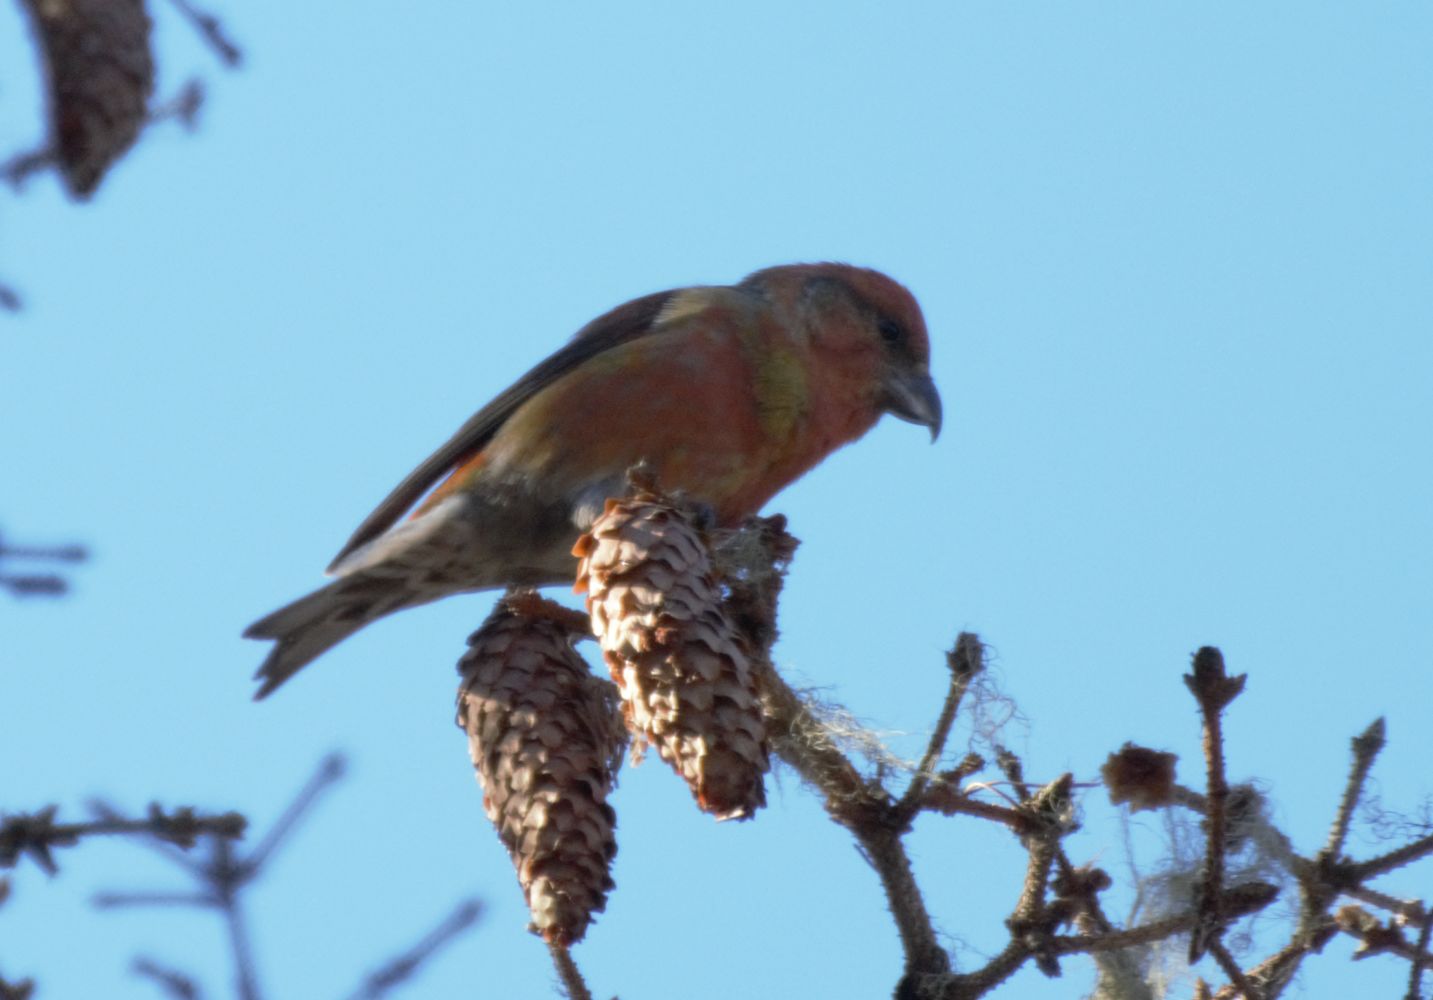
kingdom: Animalia
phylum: Chordata
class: Aves
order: Passeriformes
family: Fringillidae
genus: Loxia
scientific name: Loxia curvirostra
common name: Red crossbill
